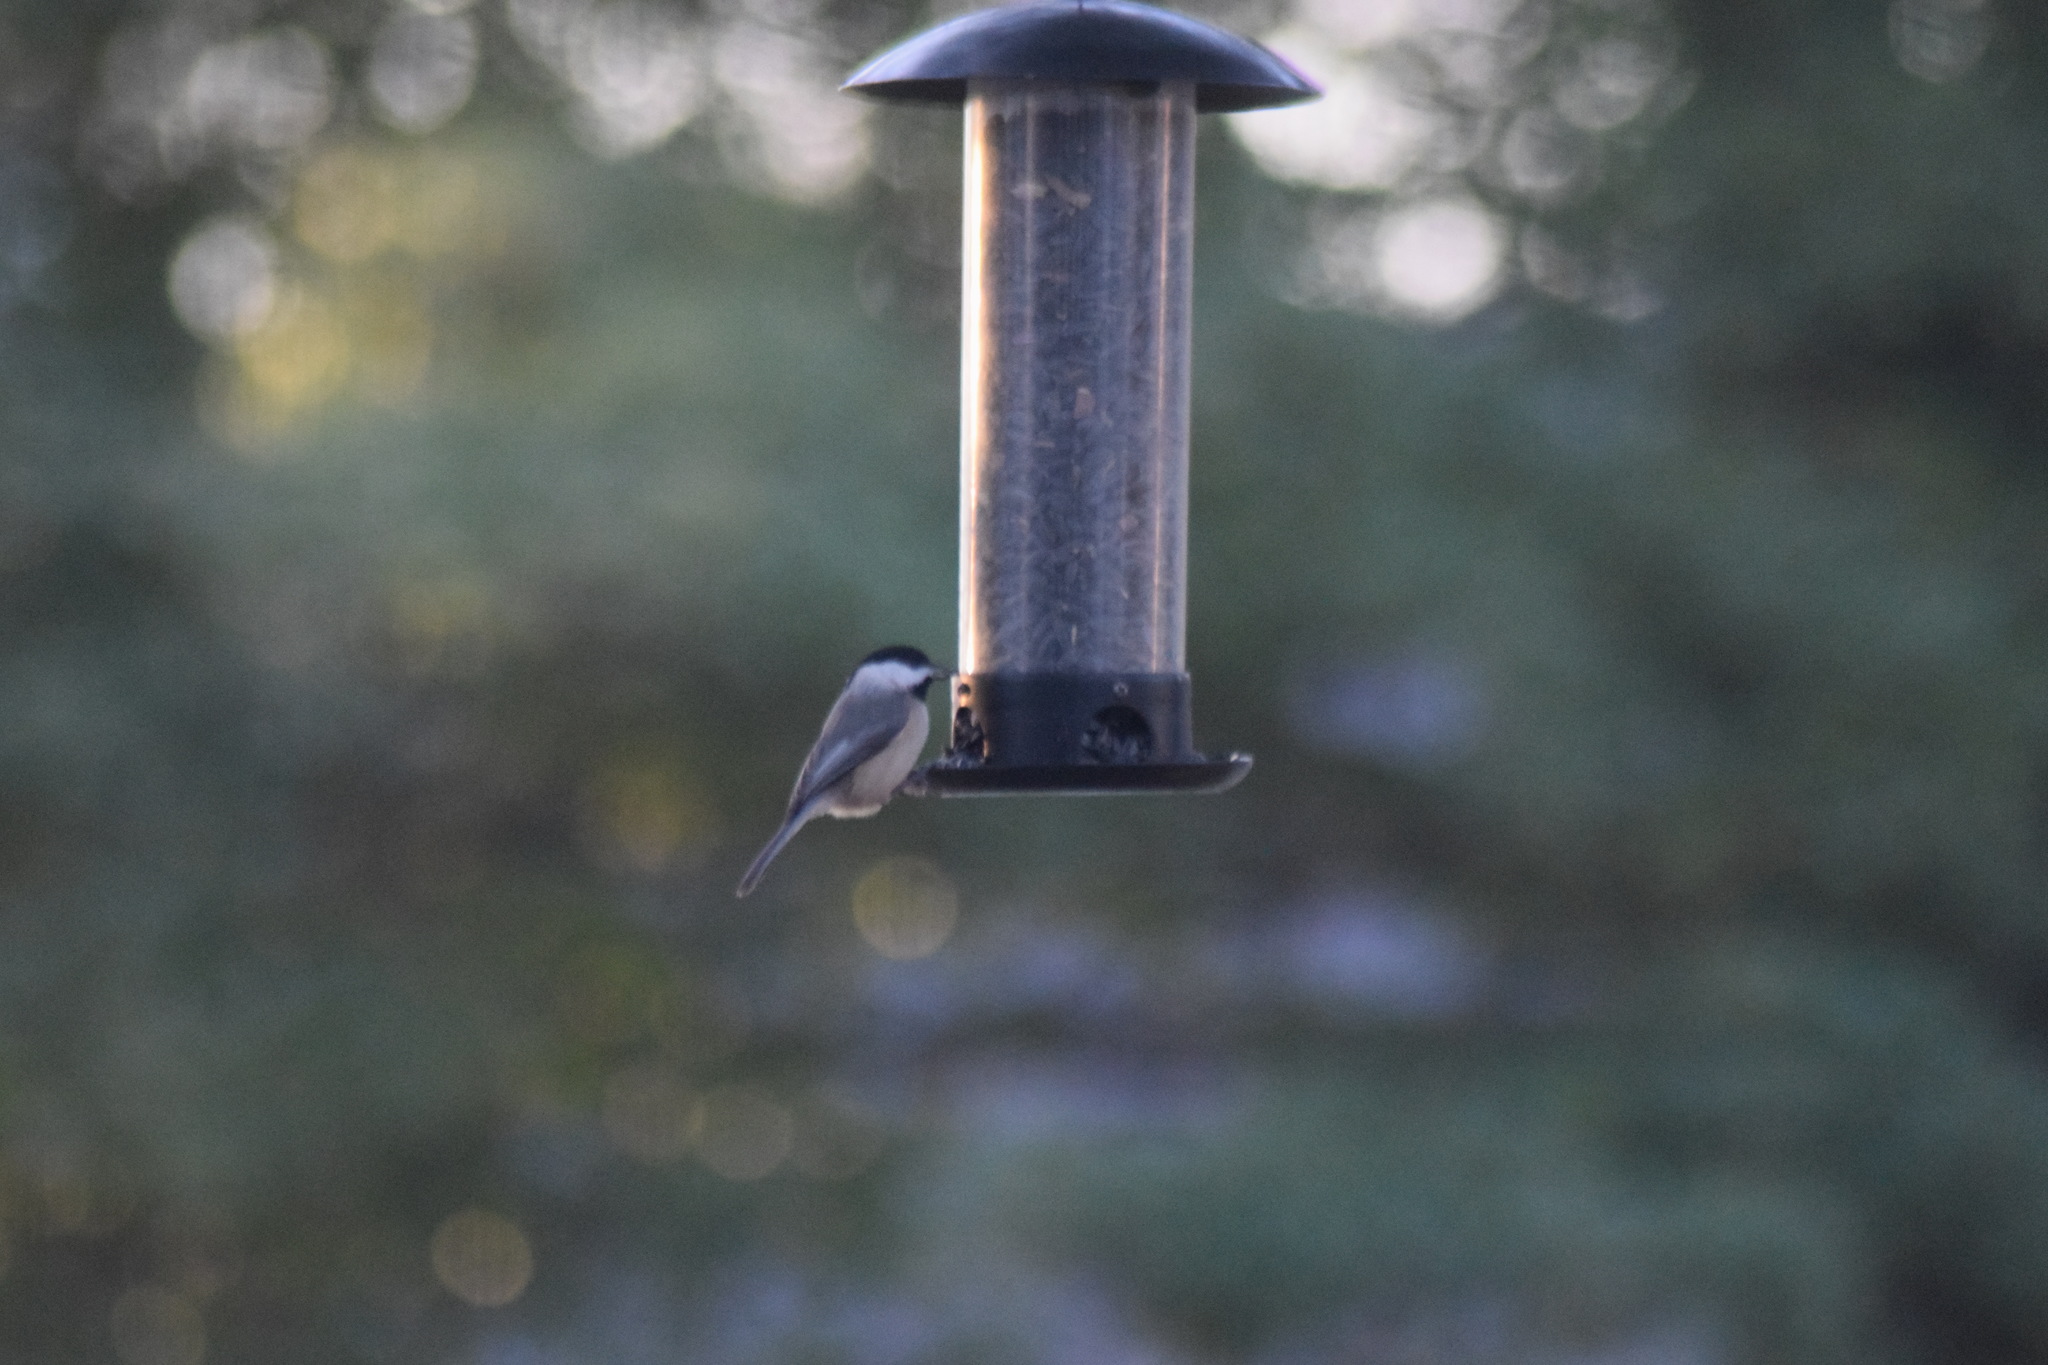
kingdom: Animalia
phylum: Chordata
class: Aves
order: Passeriformes
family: Paridae
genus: Poecile
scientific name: Poecile carolinensis
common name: Carolina chickadee
